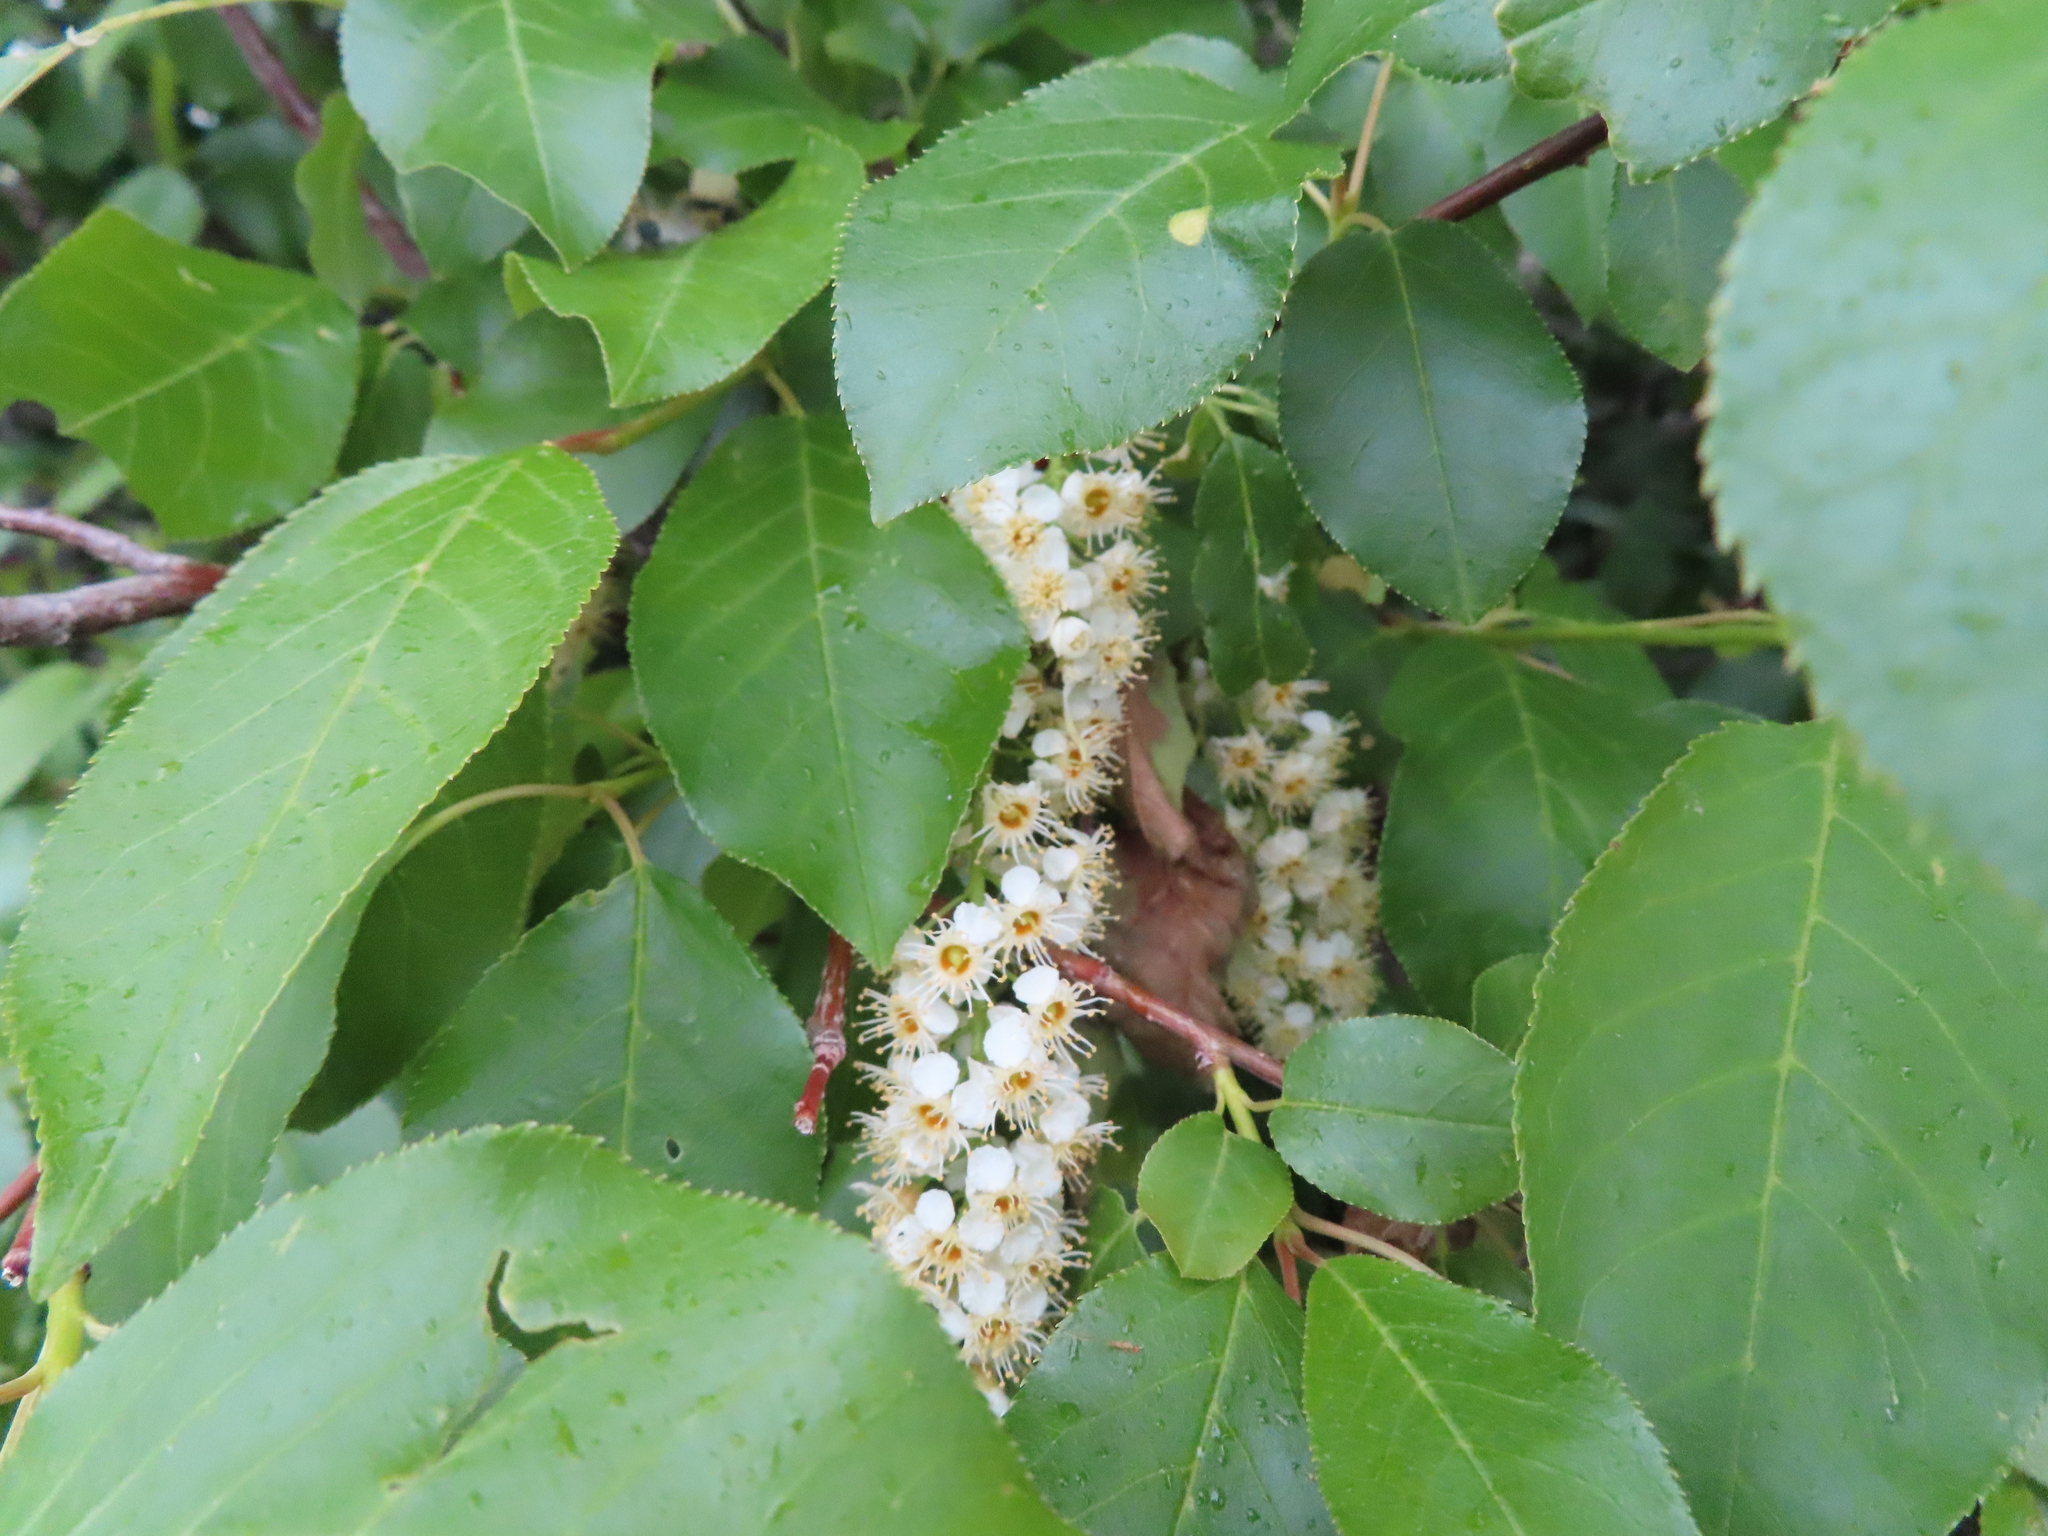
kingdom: Plantae
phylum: Tracheophyta
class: Magnoliopsida
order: Rosales
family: Rosaceae
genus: Prunus
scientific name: Prunus virginiana
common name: Chokecherry
